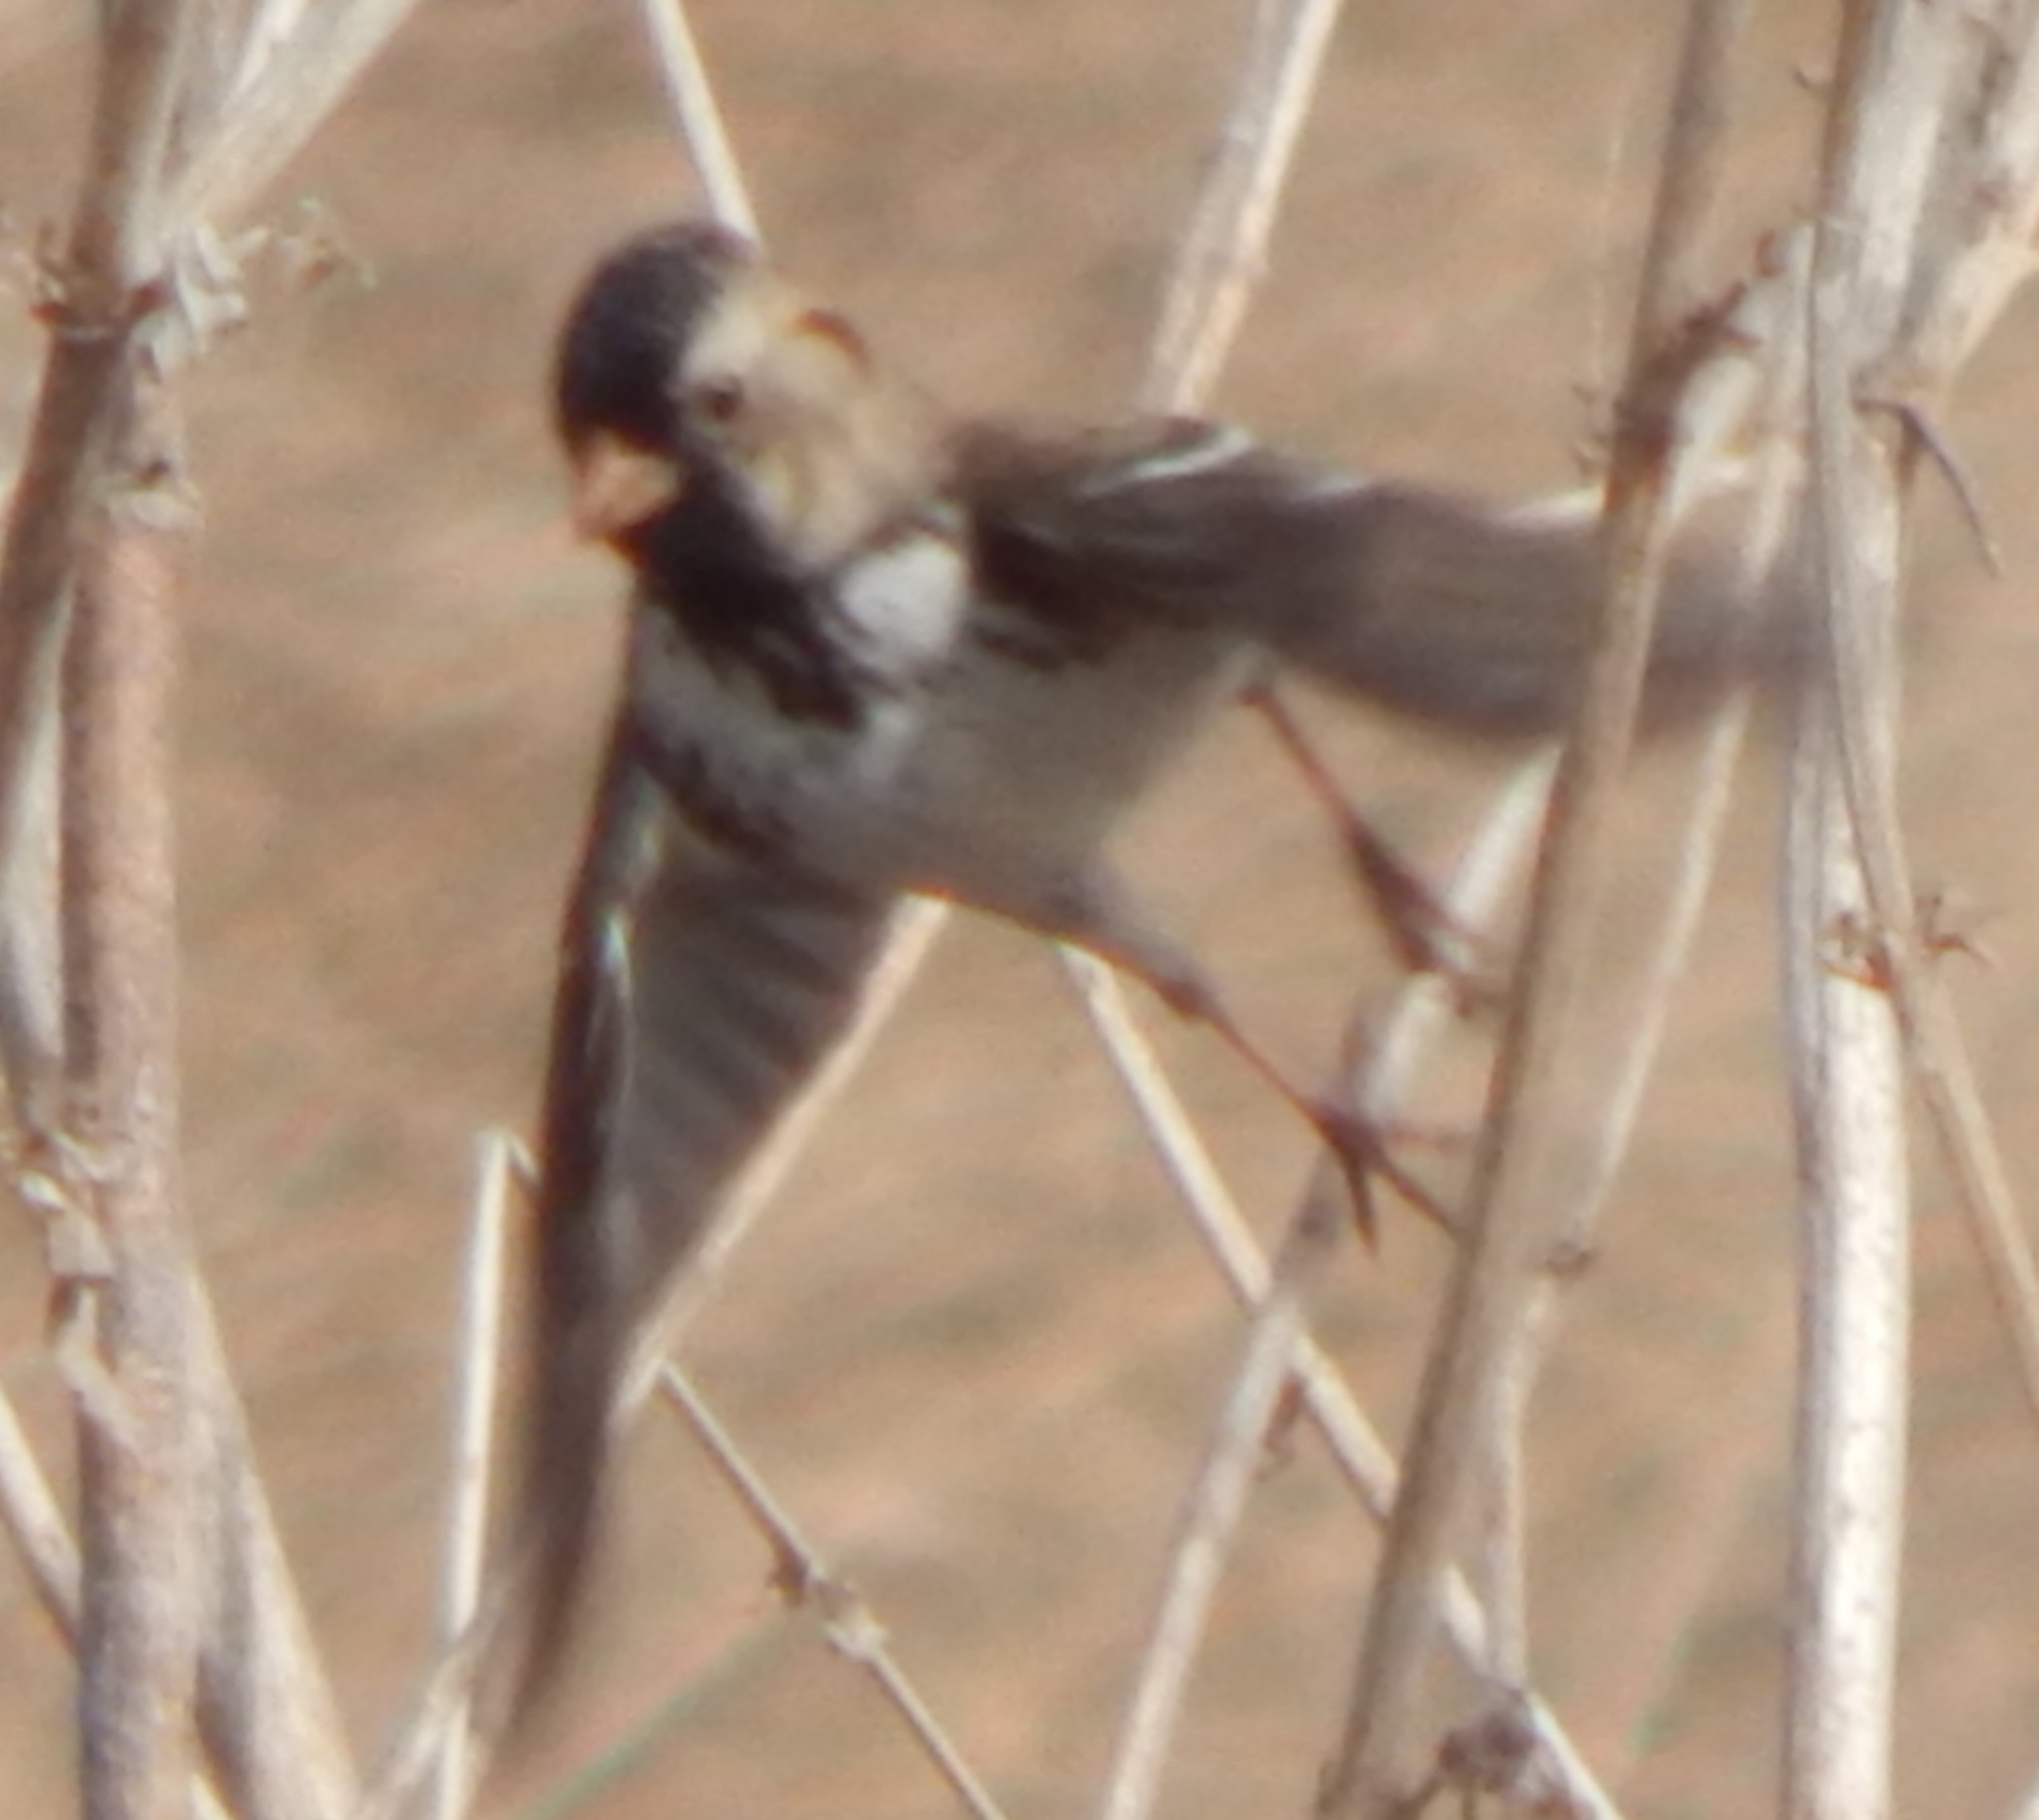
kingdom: Animalia
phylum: Chordata
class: Aves
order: Passeriformes
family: Passerellidae
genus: Zonotrichia
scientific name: Zonotrichia querula
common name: Harris's sparrow
